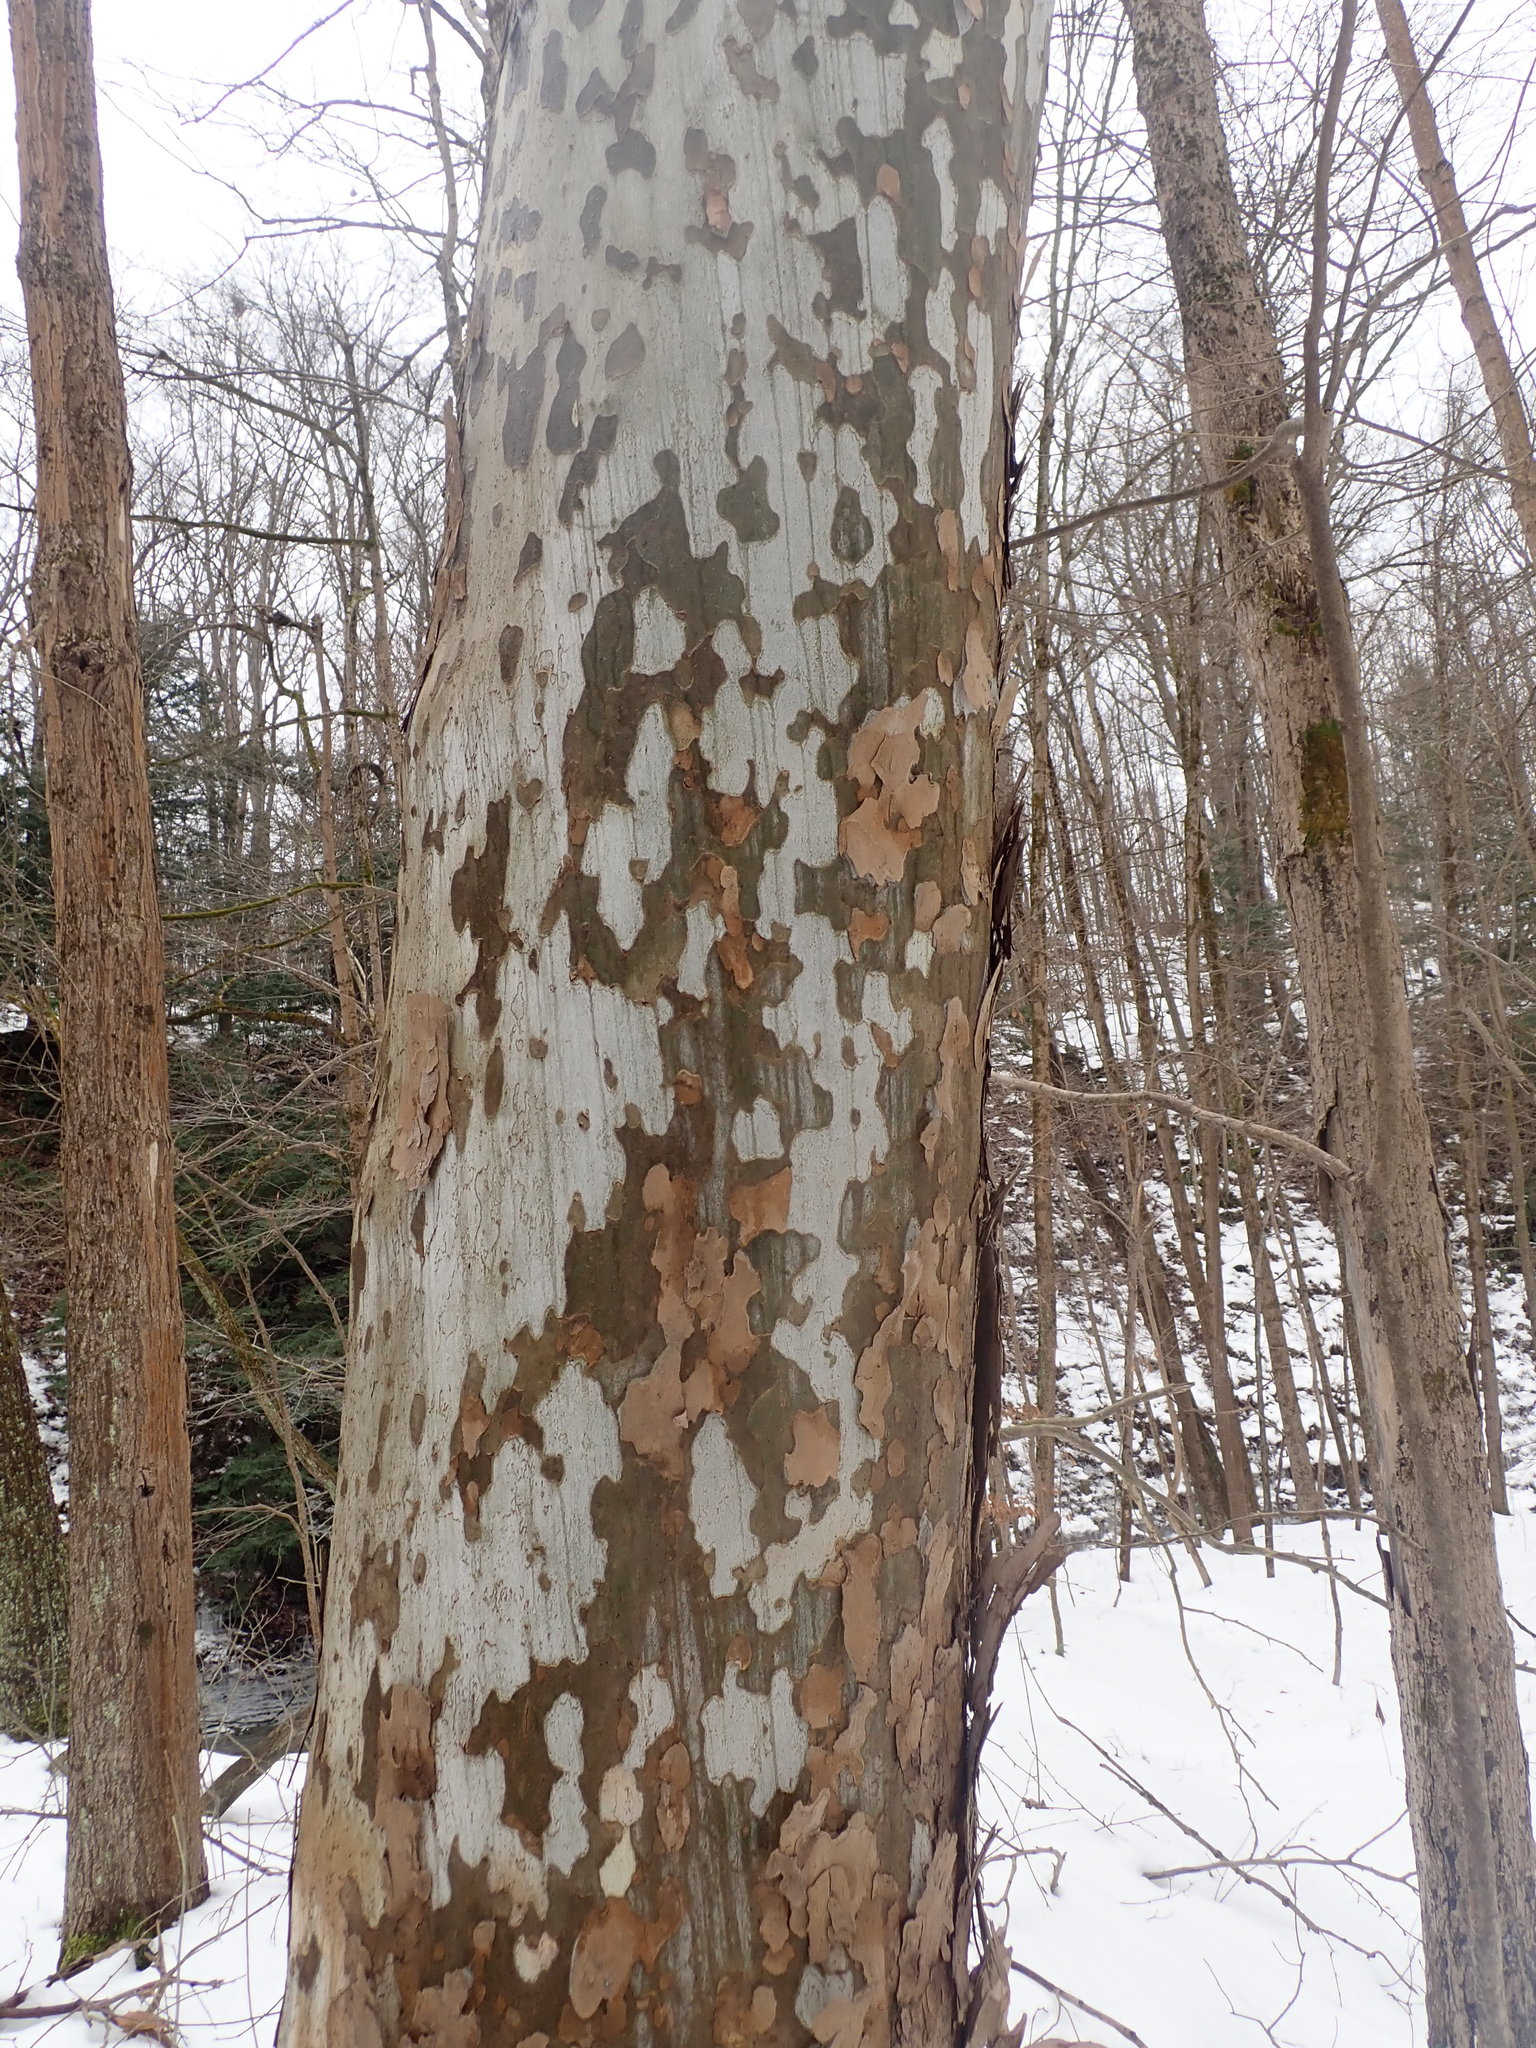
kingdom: Plantae
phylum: Tracheophyta
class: Magnoliopsida
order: Proteales
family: Platanaceae
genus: Platanus
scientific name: Platanus occidentalis
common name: American sycamore
